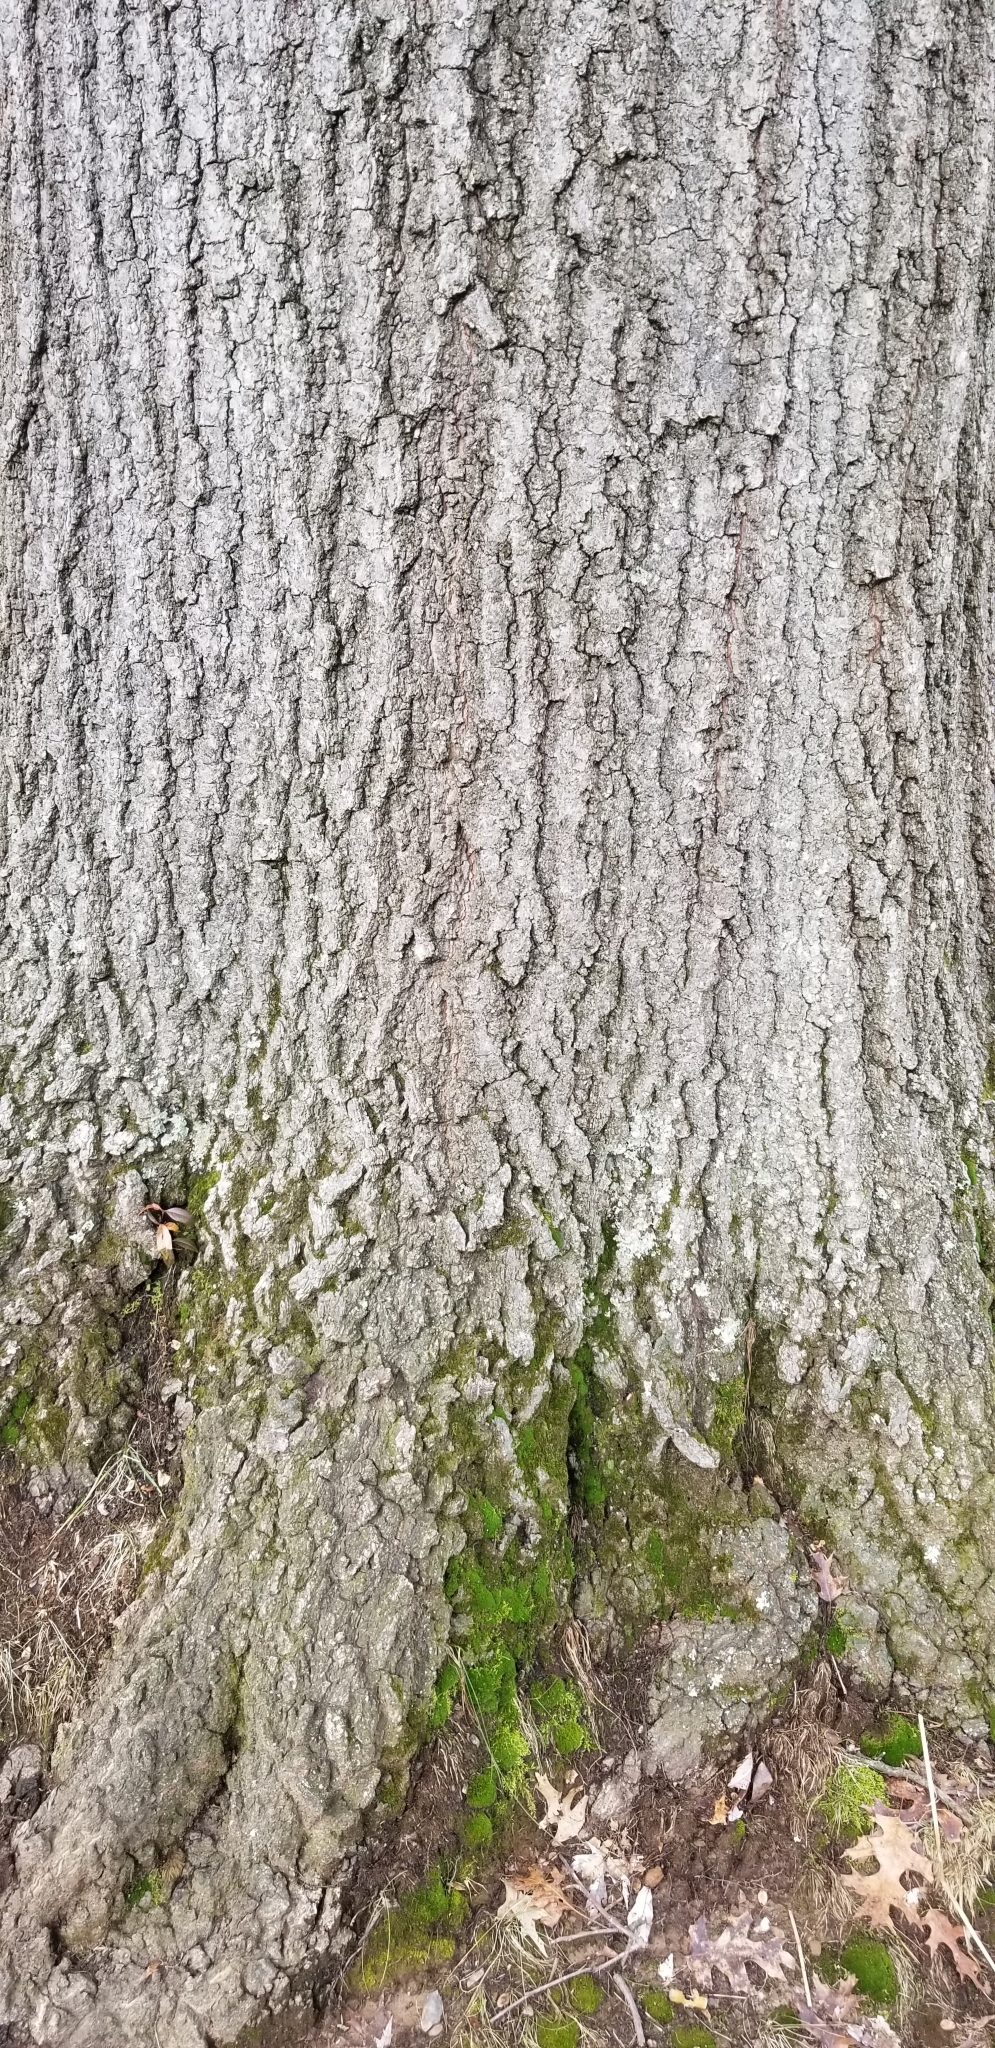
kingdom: Plantae
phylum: Tracheophyta
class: Magnoliopsida
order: Fagales
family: Fagaceae
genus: Quercus
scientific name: Quercus rubra
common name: Red oak
